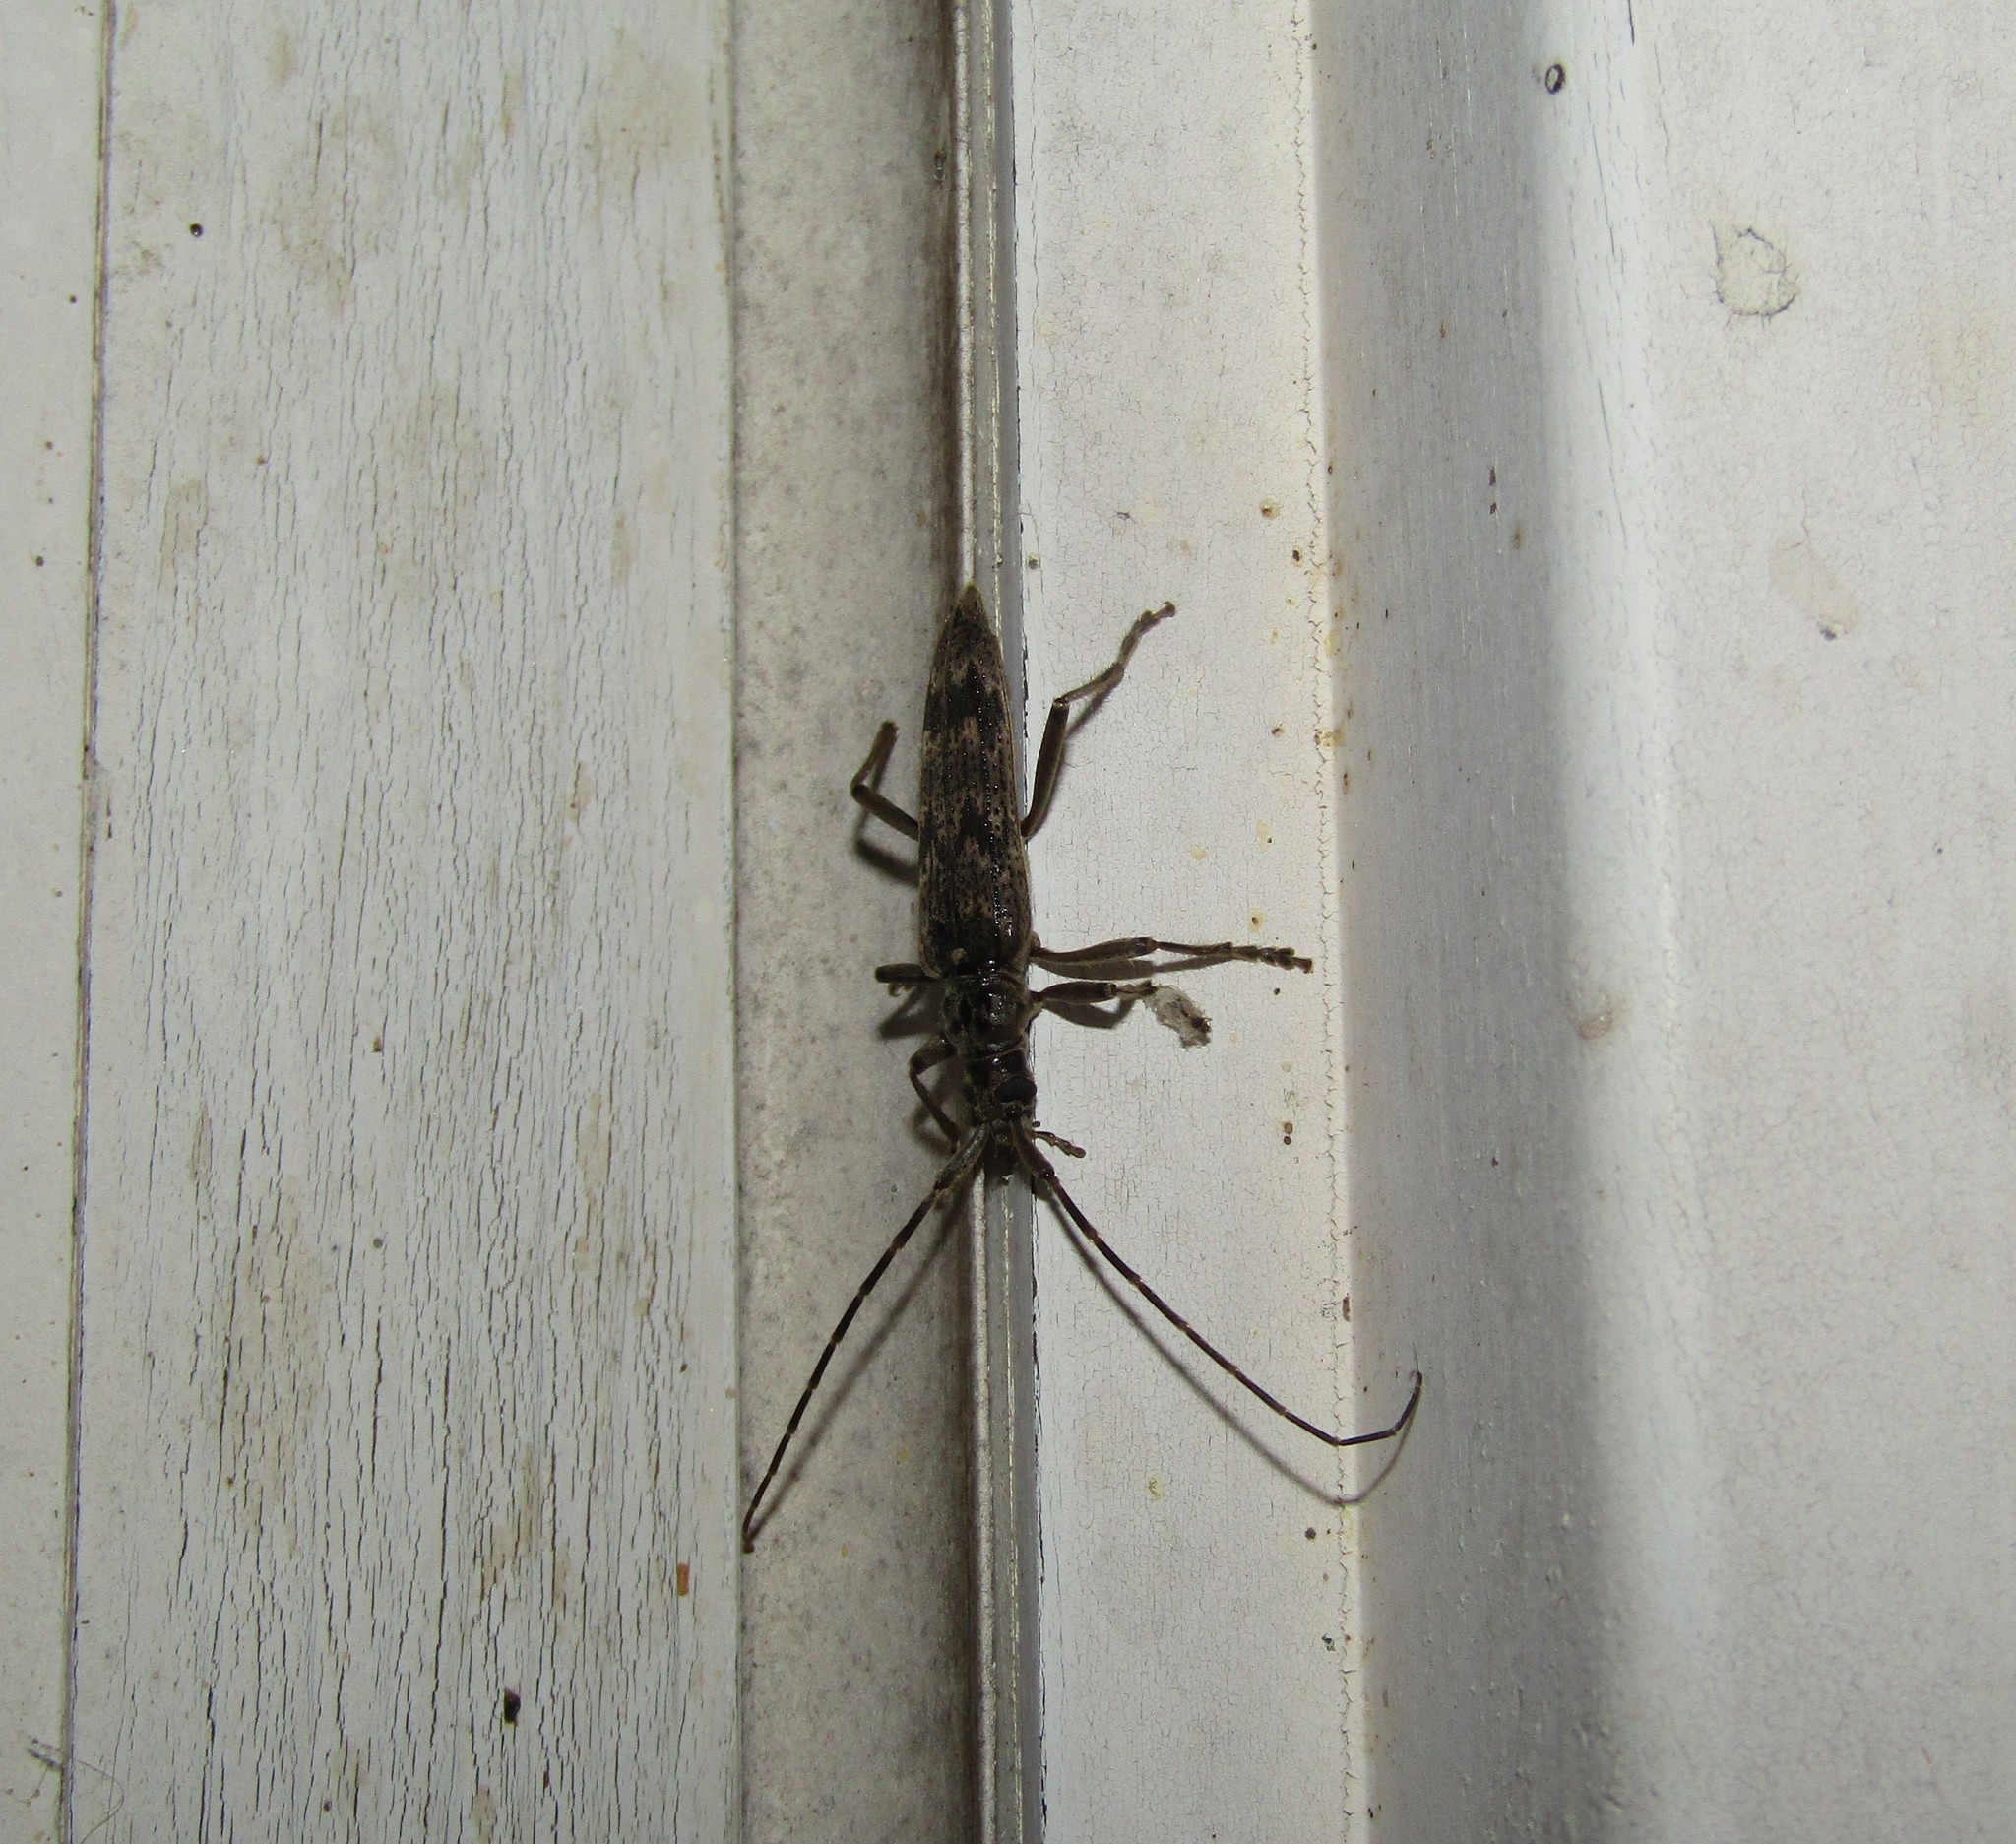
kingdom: Animalia
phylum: Arthropoda
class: Insecta
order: Coleoptera
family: Cerambycidae
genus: Elytrimitatrix
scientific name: Elytrimitatrix undata
